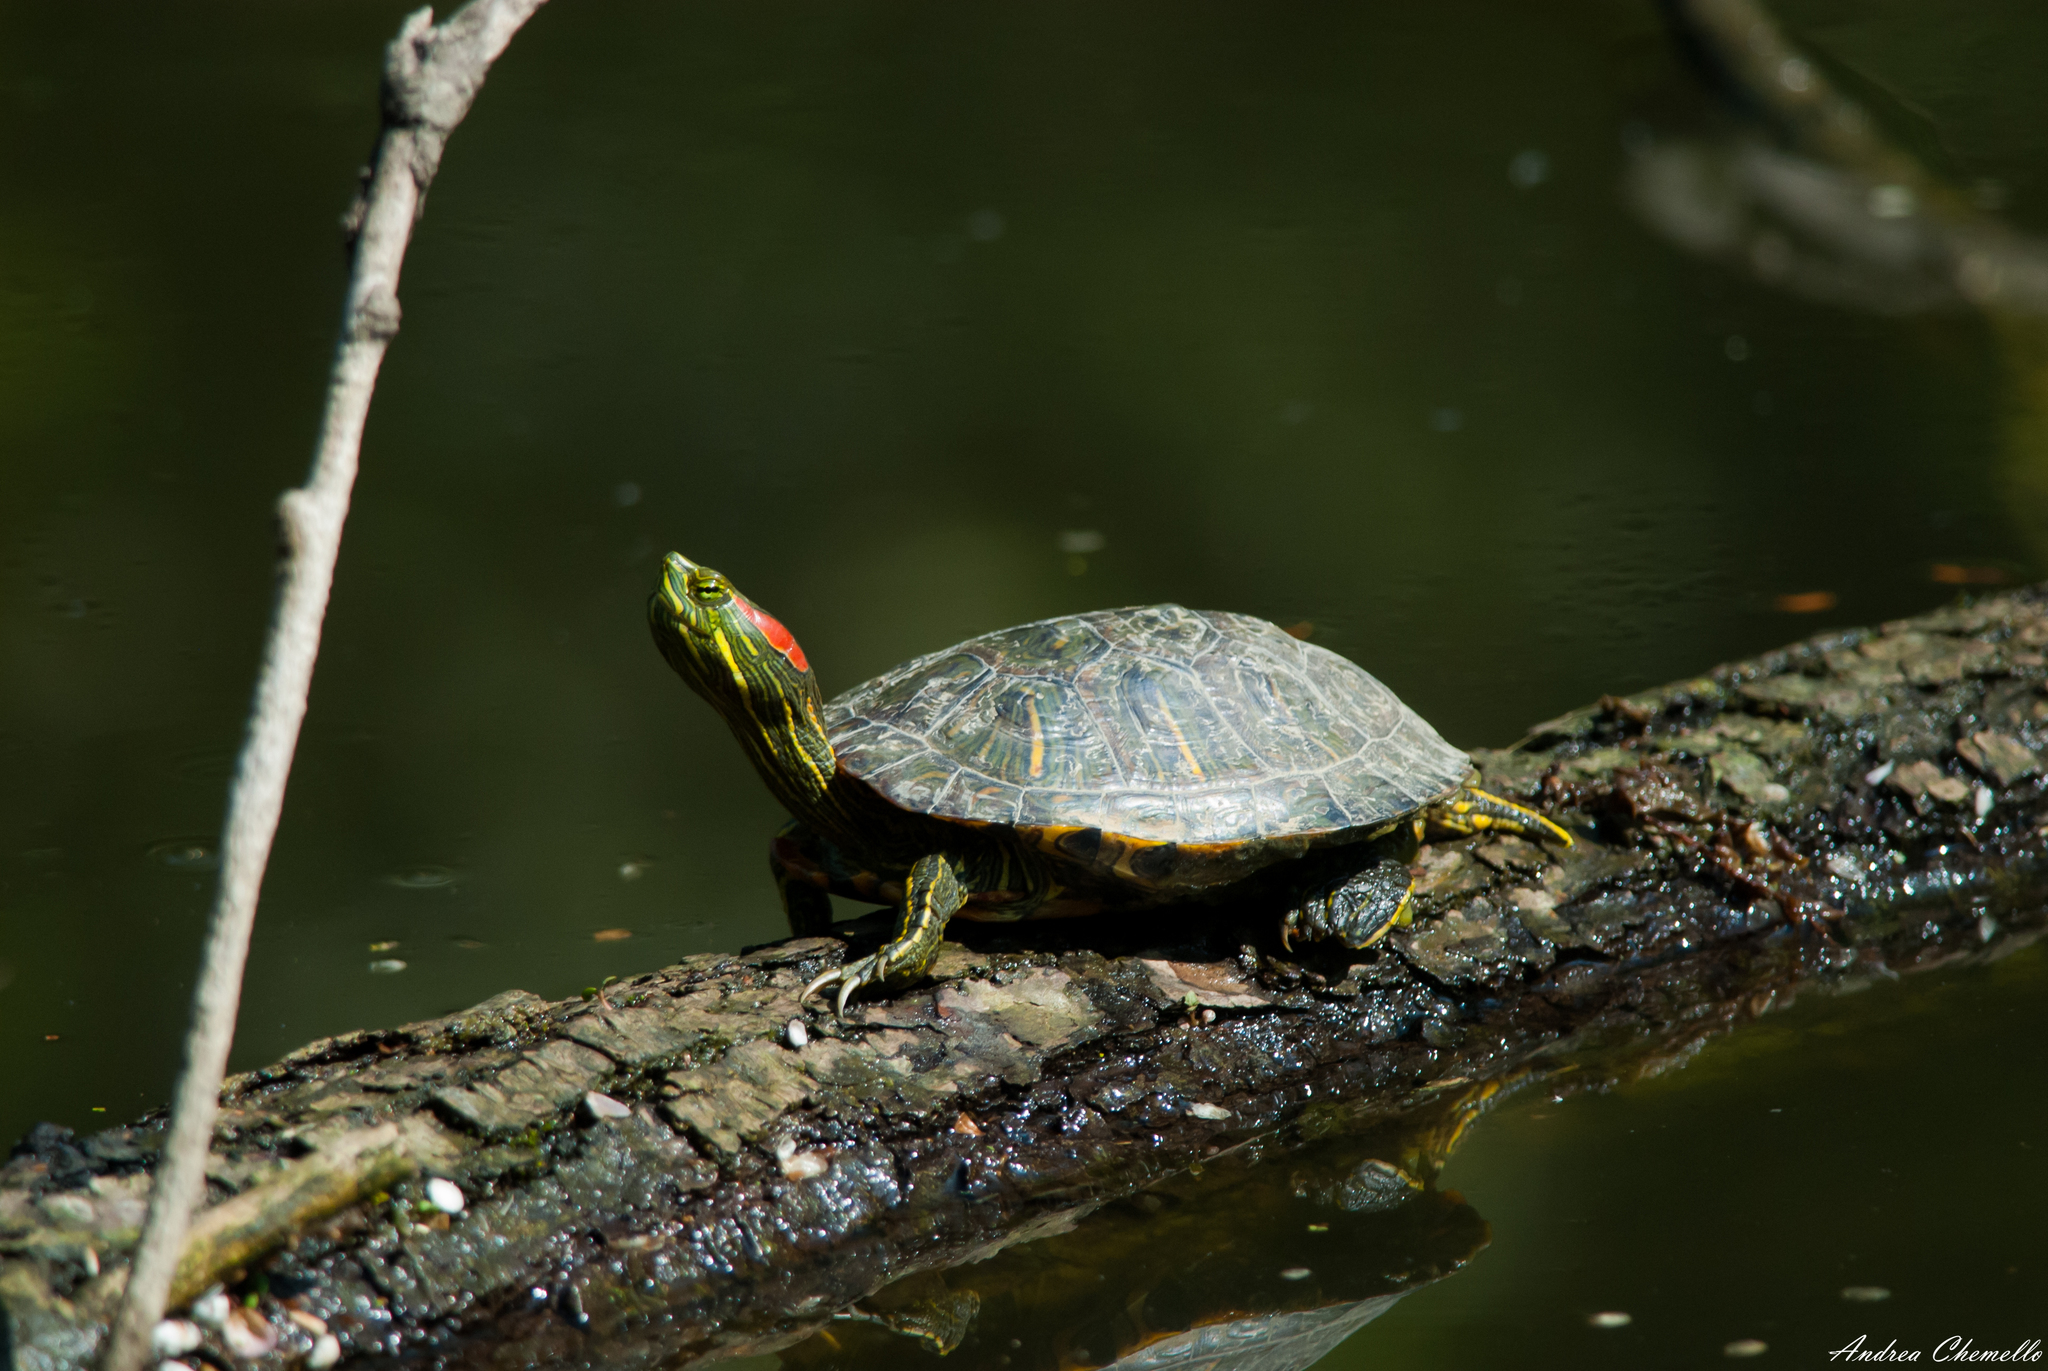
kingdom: Animalia
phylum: Chordata
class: Testudines
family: Emydidae
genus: Trachemys
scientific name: Trachemys scripta
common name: Slider
